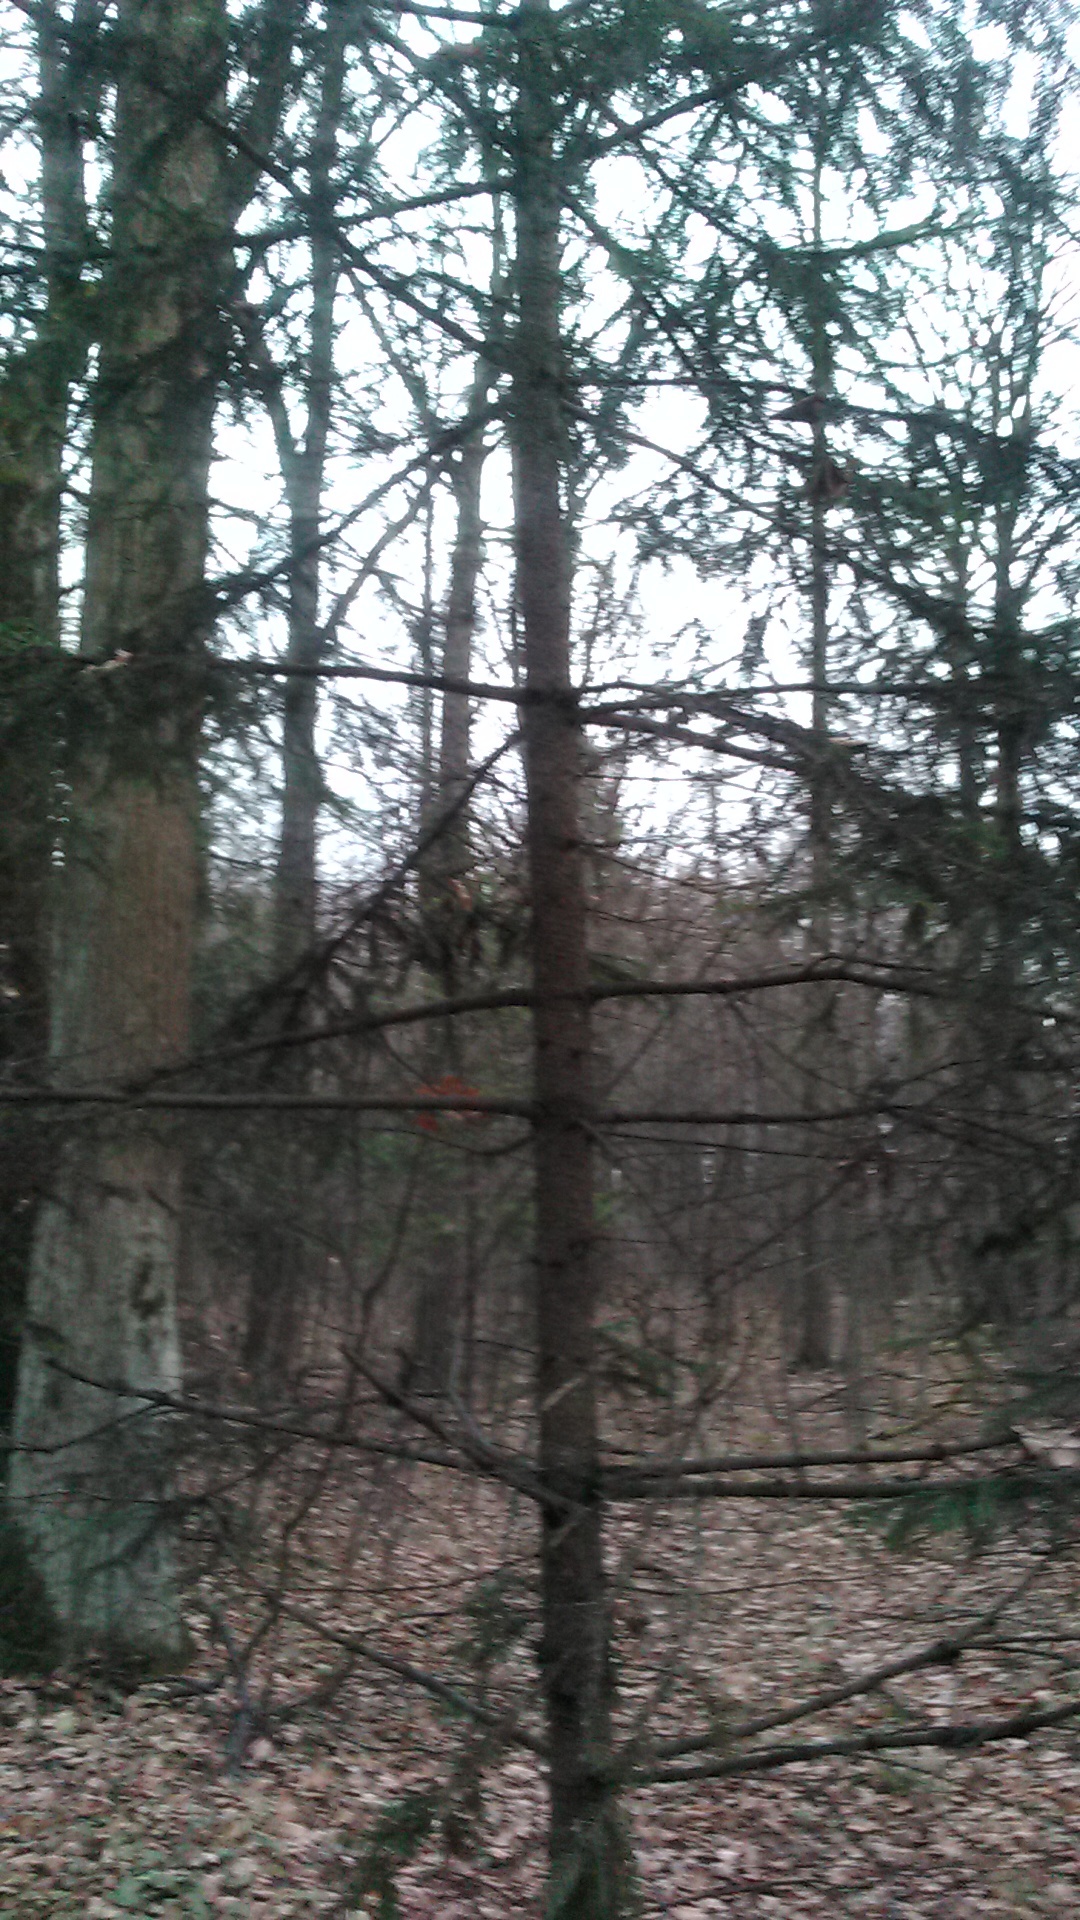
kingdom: Plantae
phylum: Tracheophyta
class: Pinopsida
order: Pinales
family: Pinaceae
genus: Picea
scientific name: Picea abies
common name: Norway spruce
